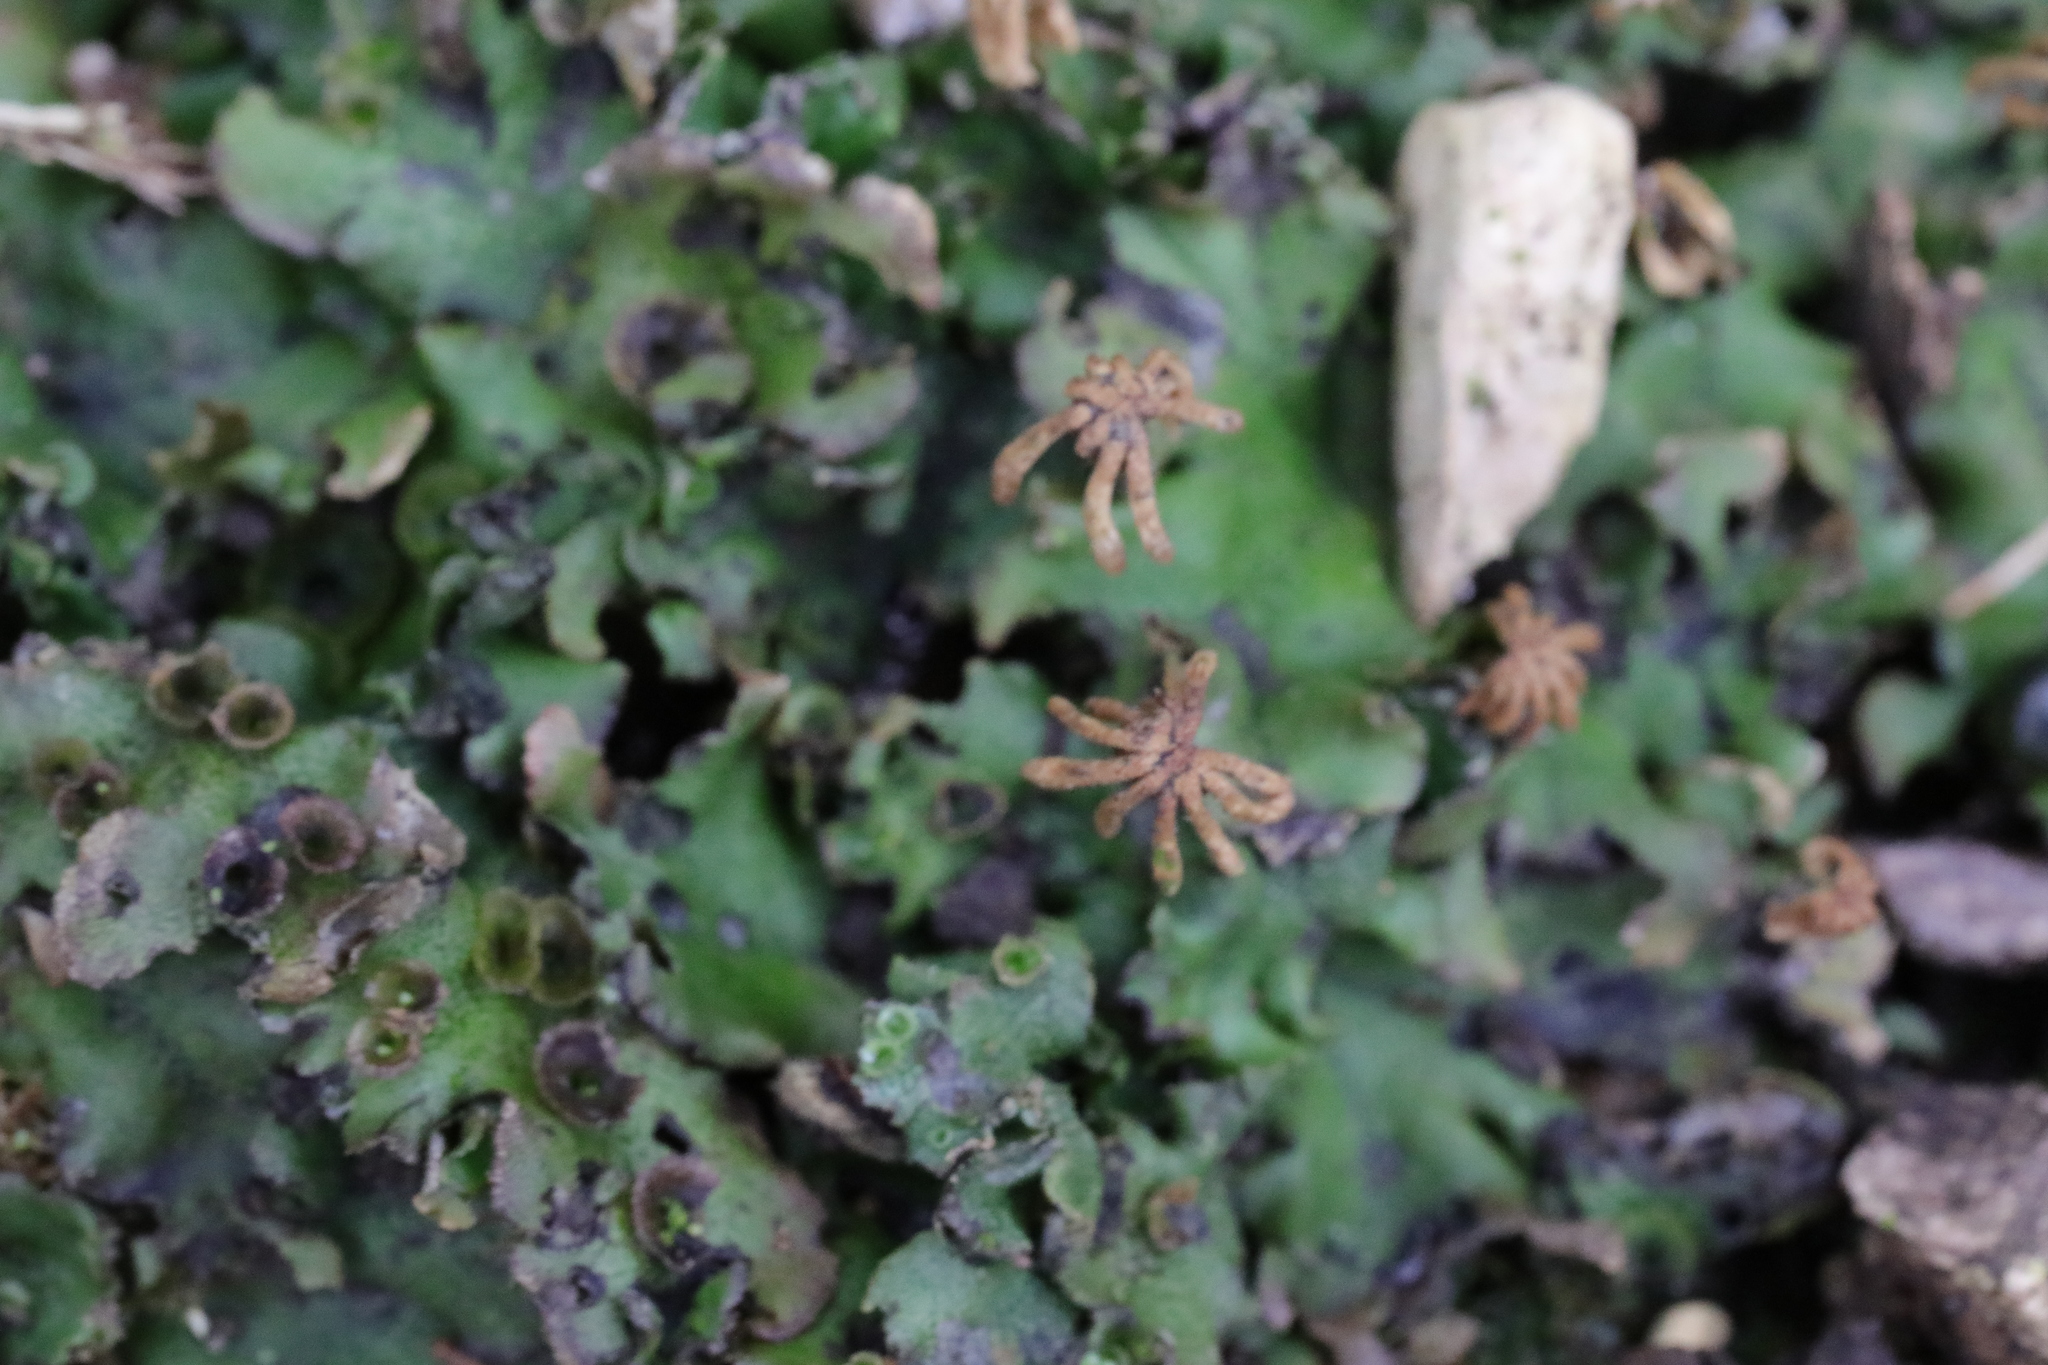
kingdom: Plantae
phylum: Marchantiophyta
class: Marchantiopsida
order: Marchantiales
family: Marchantiaceae
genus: Marchantia
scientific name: Marchantia polymorpha
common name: Common liverwort
